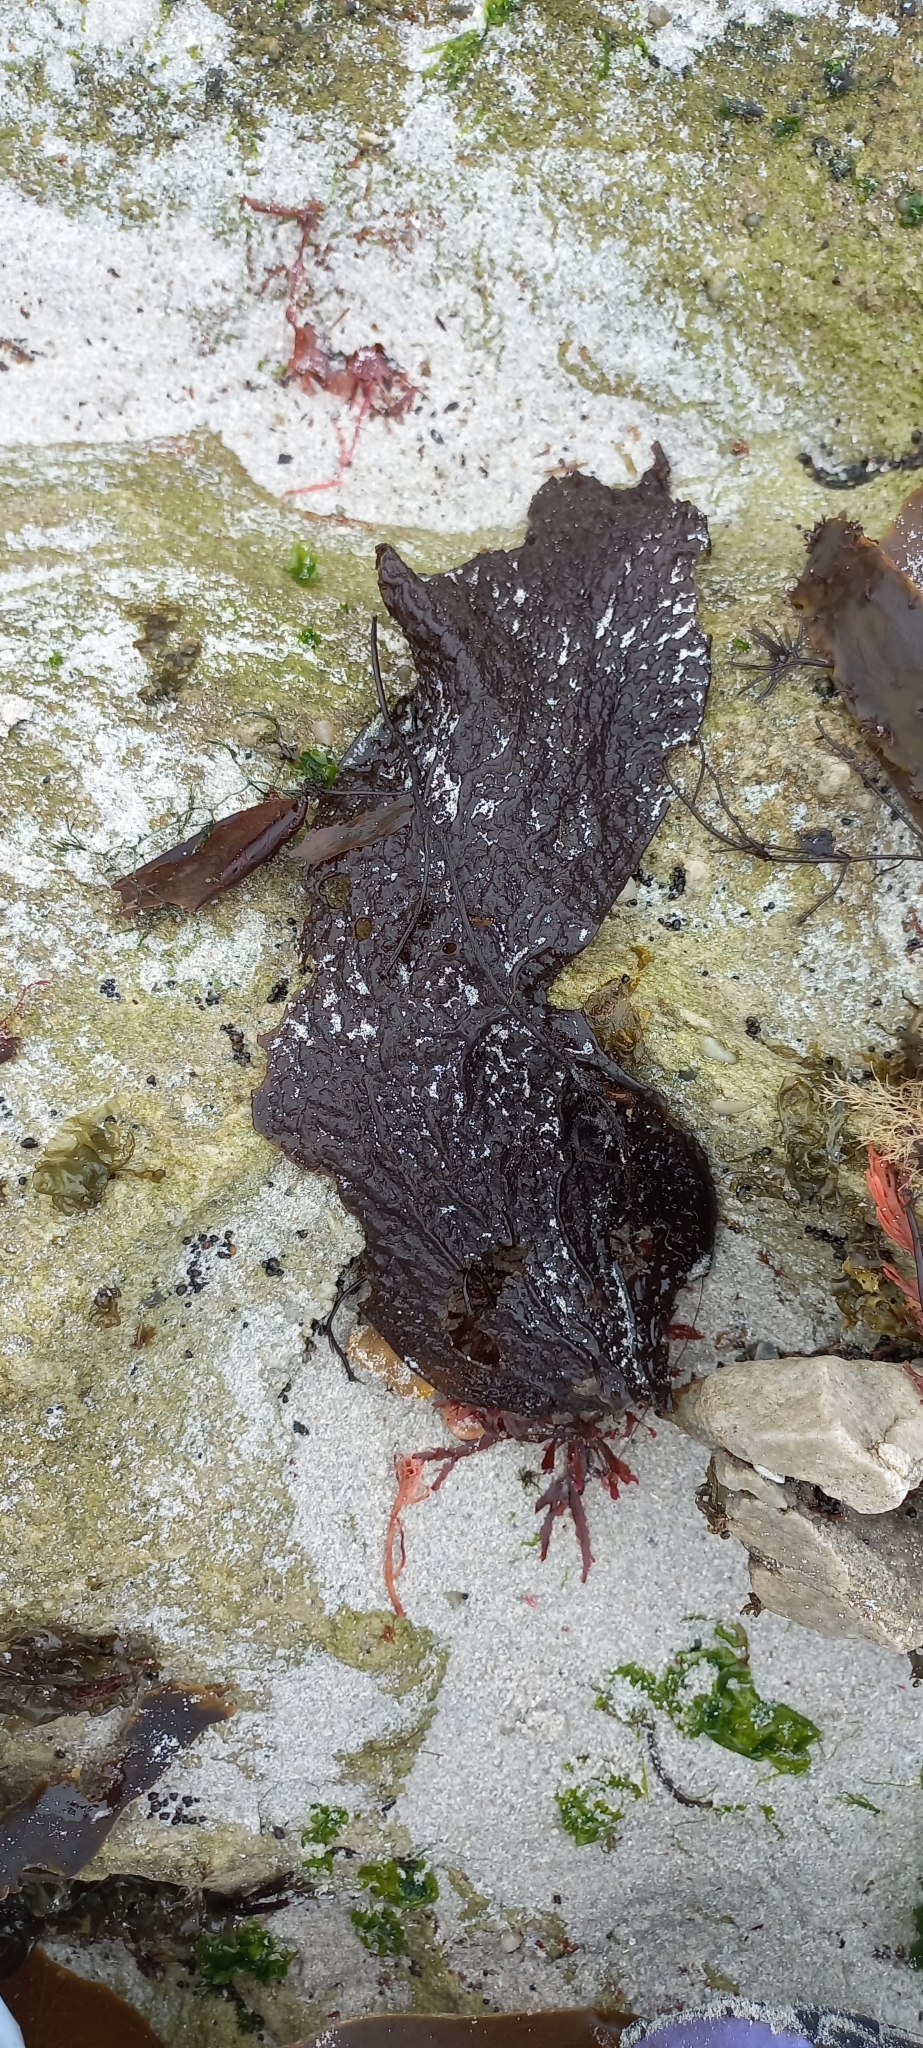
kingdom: Plantae
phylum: Rhodophyta
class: Florideophyceae
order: Gigartinales
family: Gigartinaceae
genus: Gigartina
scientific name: Gigartina
